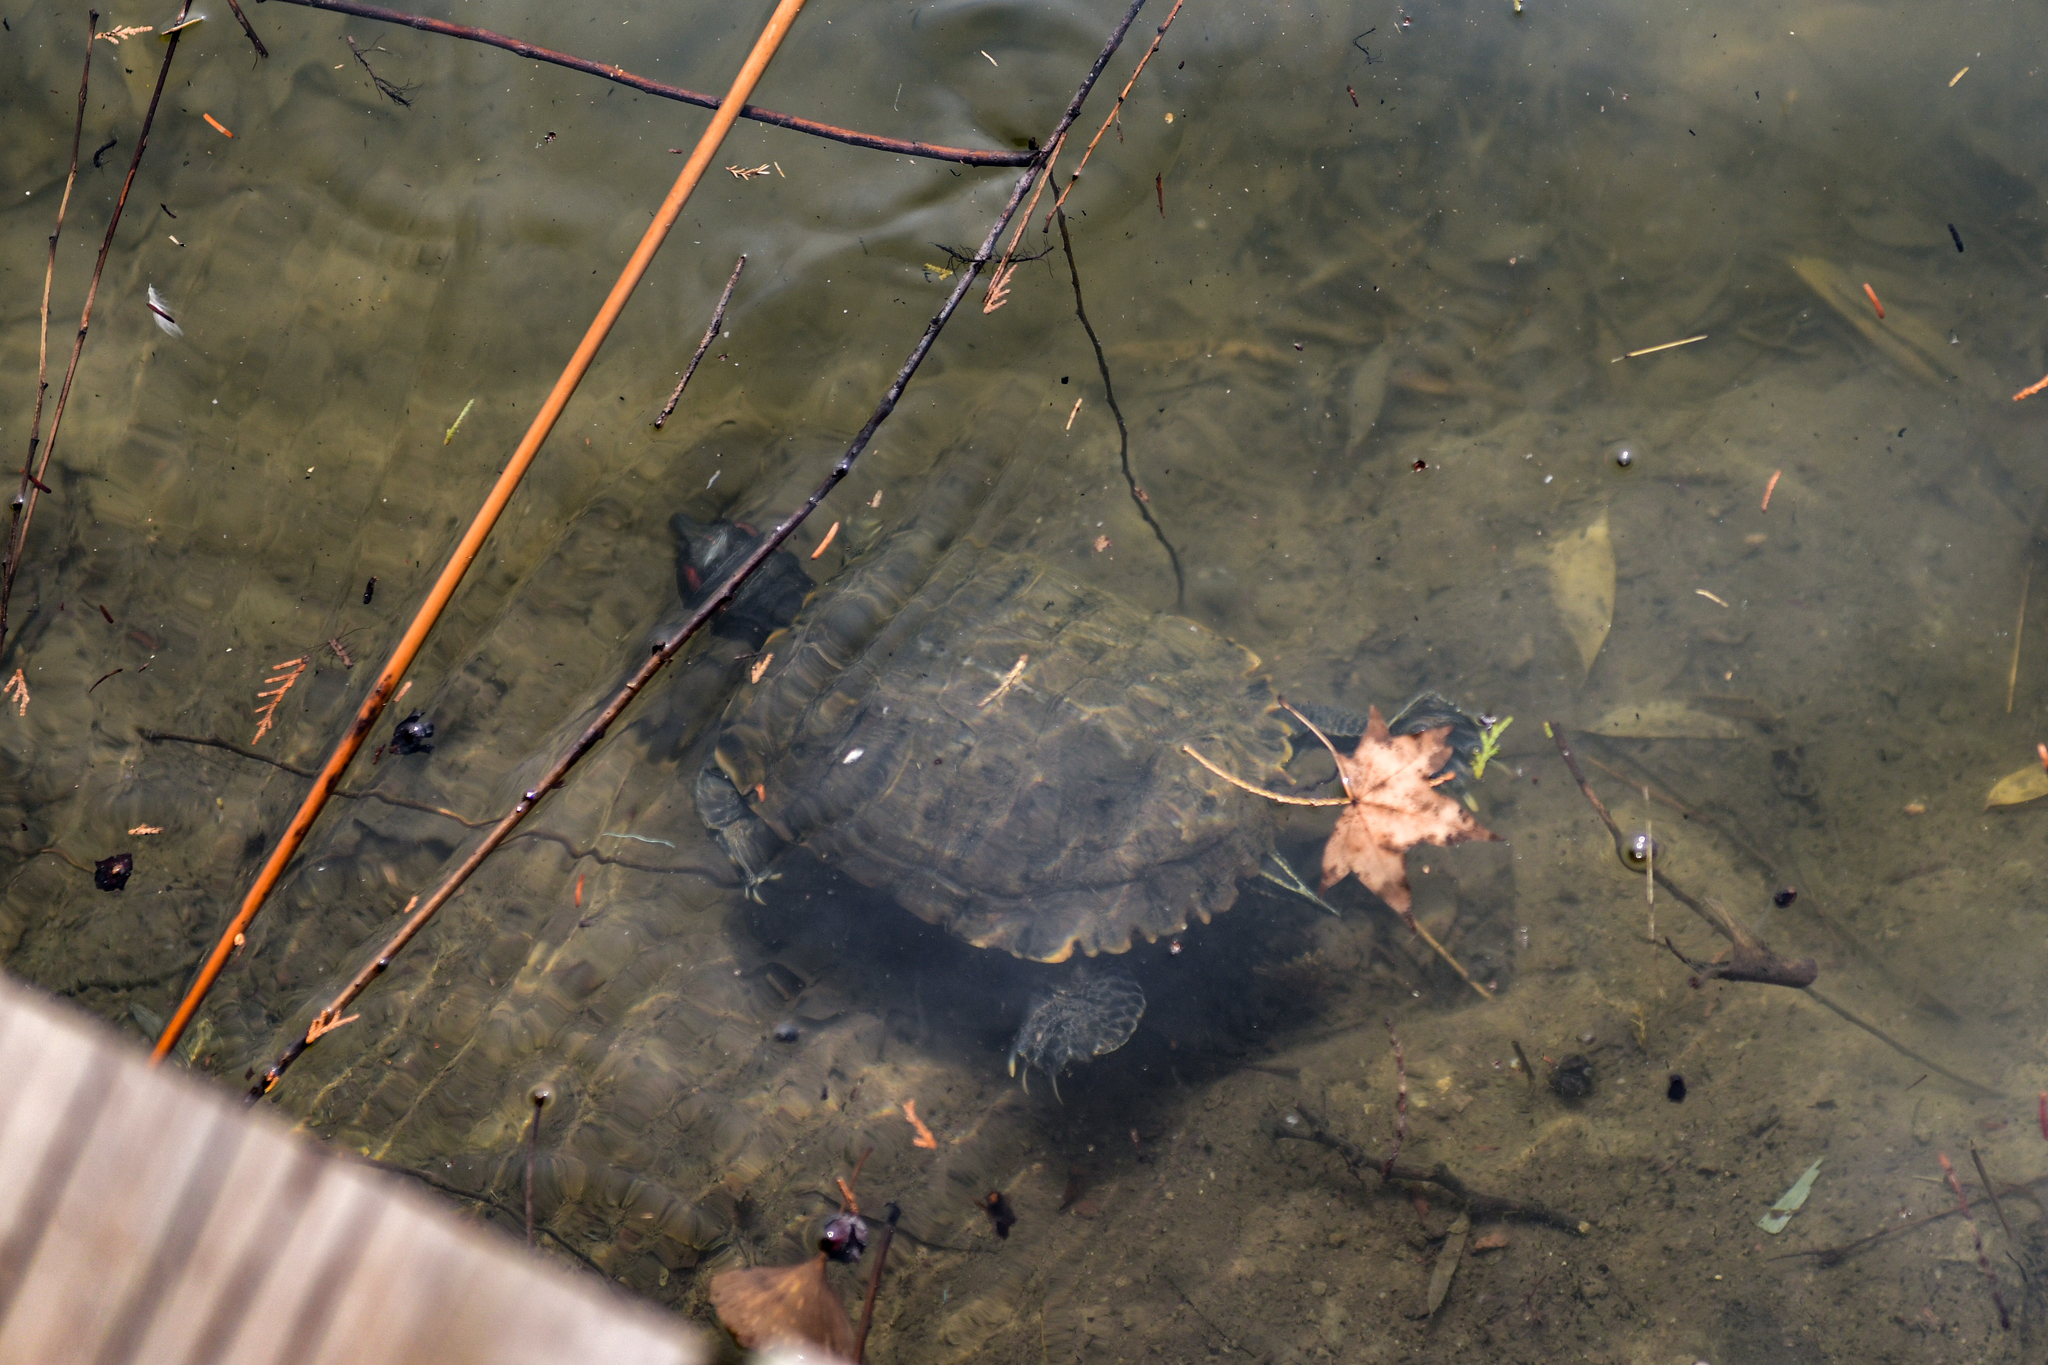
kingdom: Animalia
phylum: Chordata
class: Testudines
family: Emydidae
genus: Trachemys
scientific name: Trachemys scripta
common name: Slider
